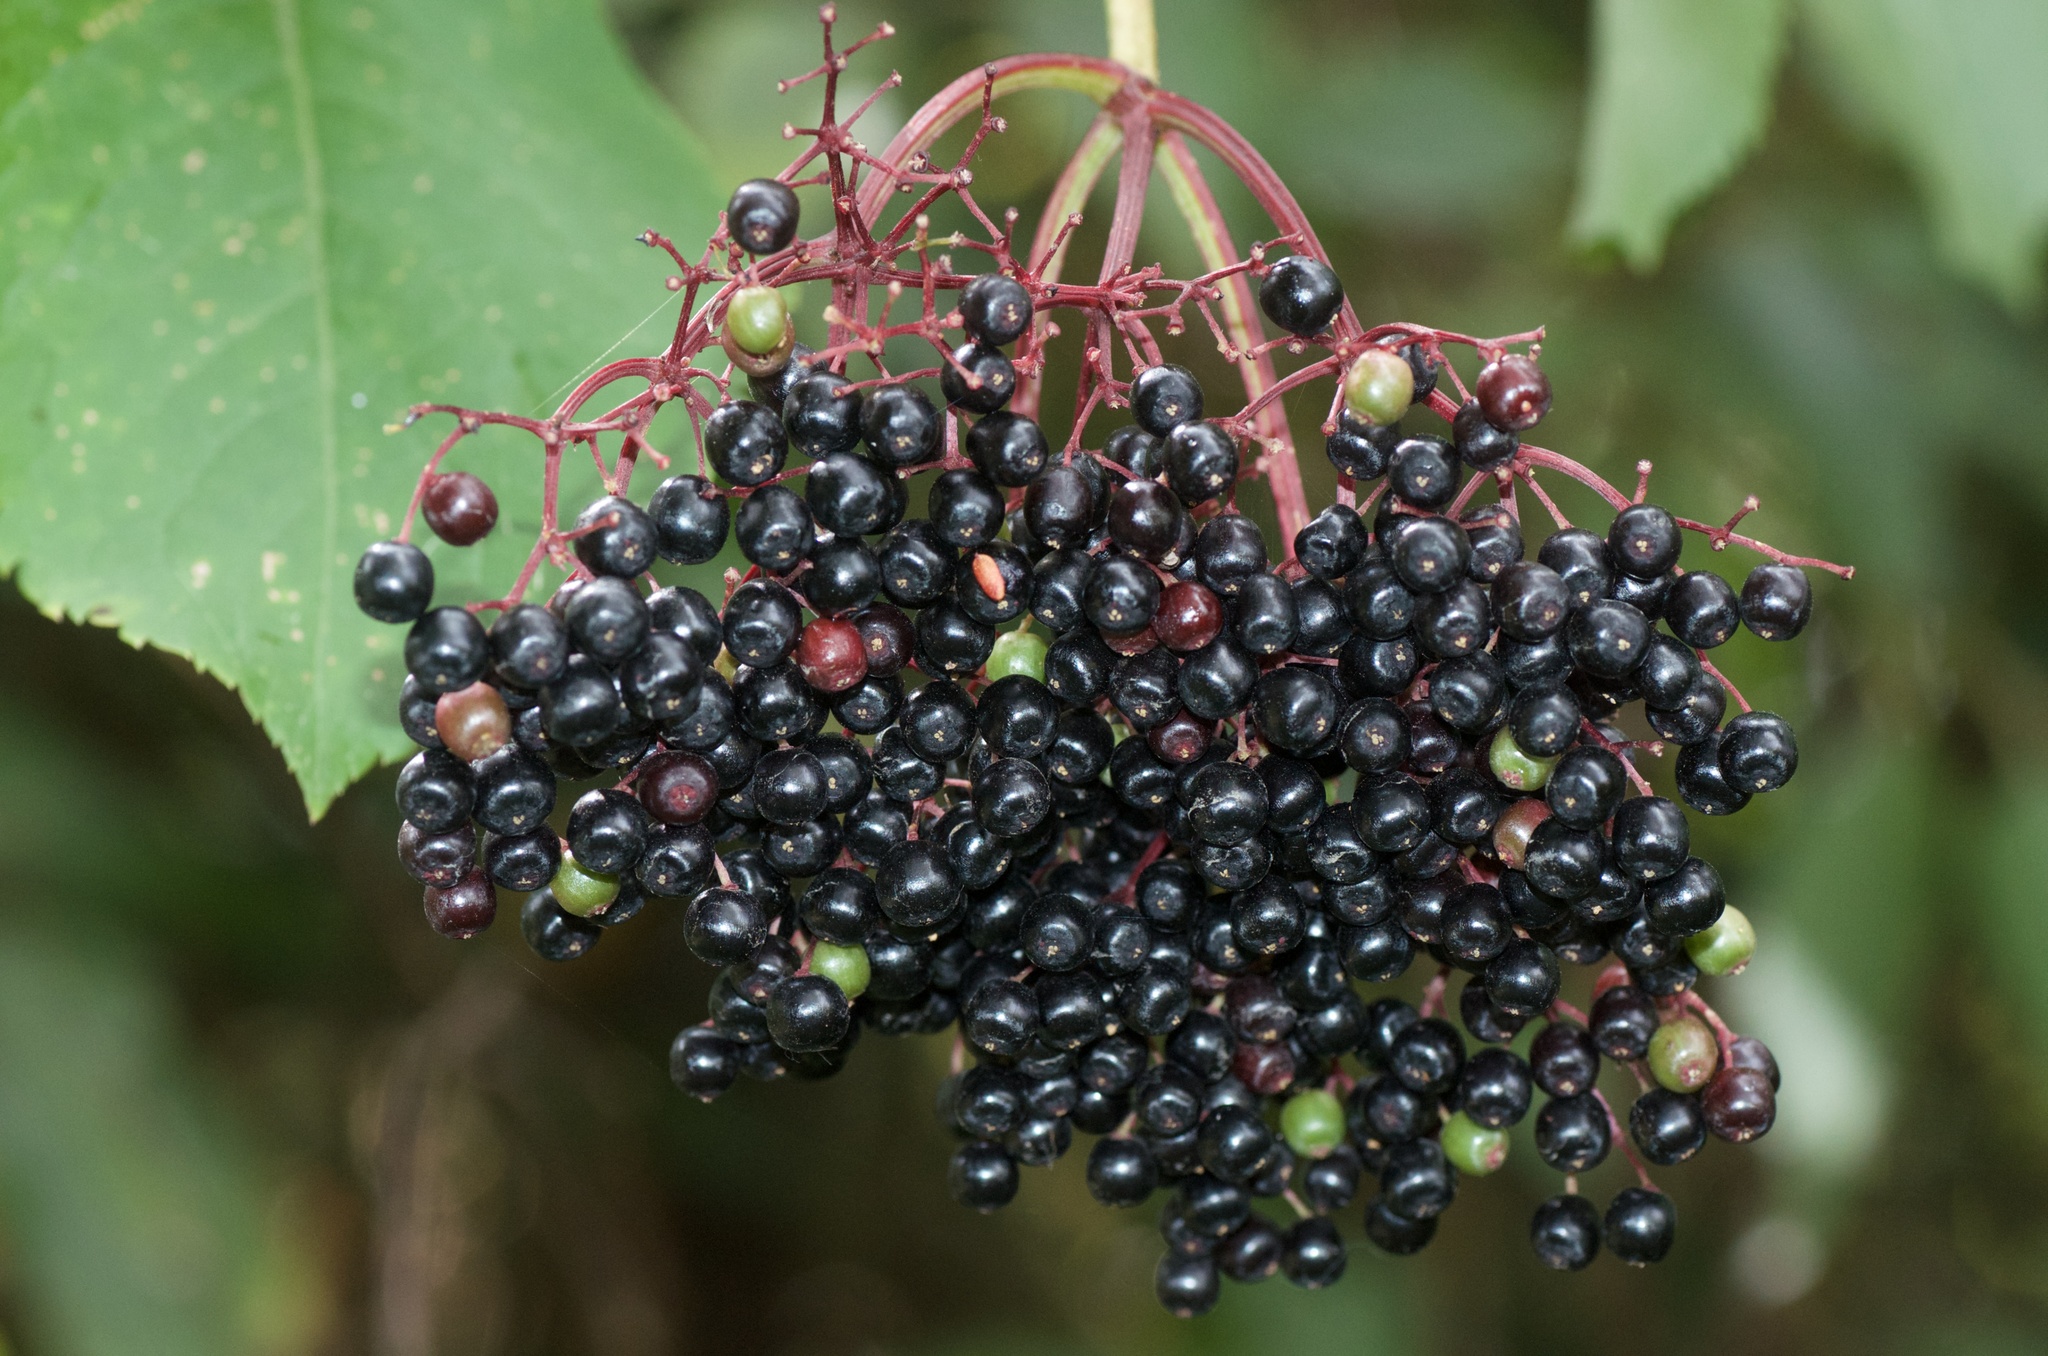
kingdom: Plantae
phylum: Tracheophyta
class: Magnoliopsida
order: Dipsacales
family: Viburnaceae
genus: Sambucus
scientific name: Sambucus nigra
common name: Elder
